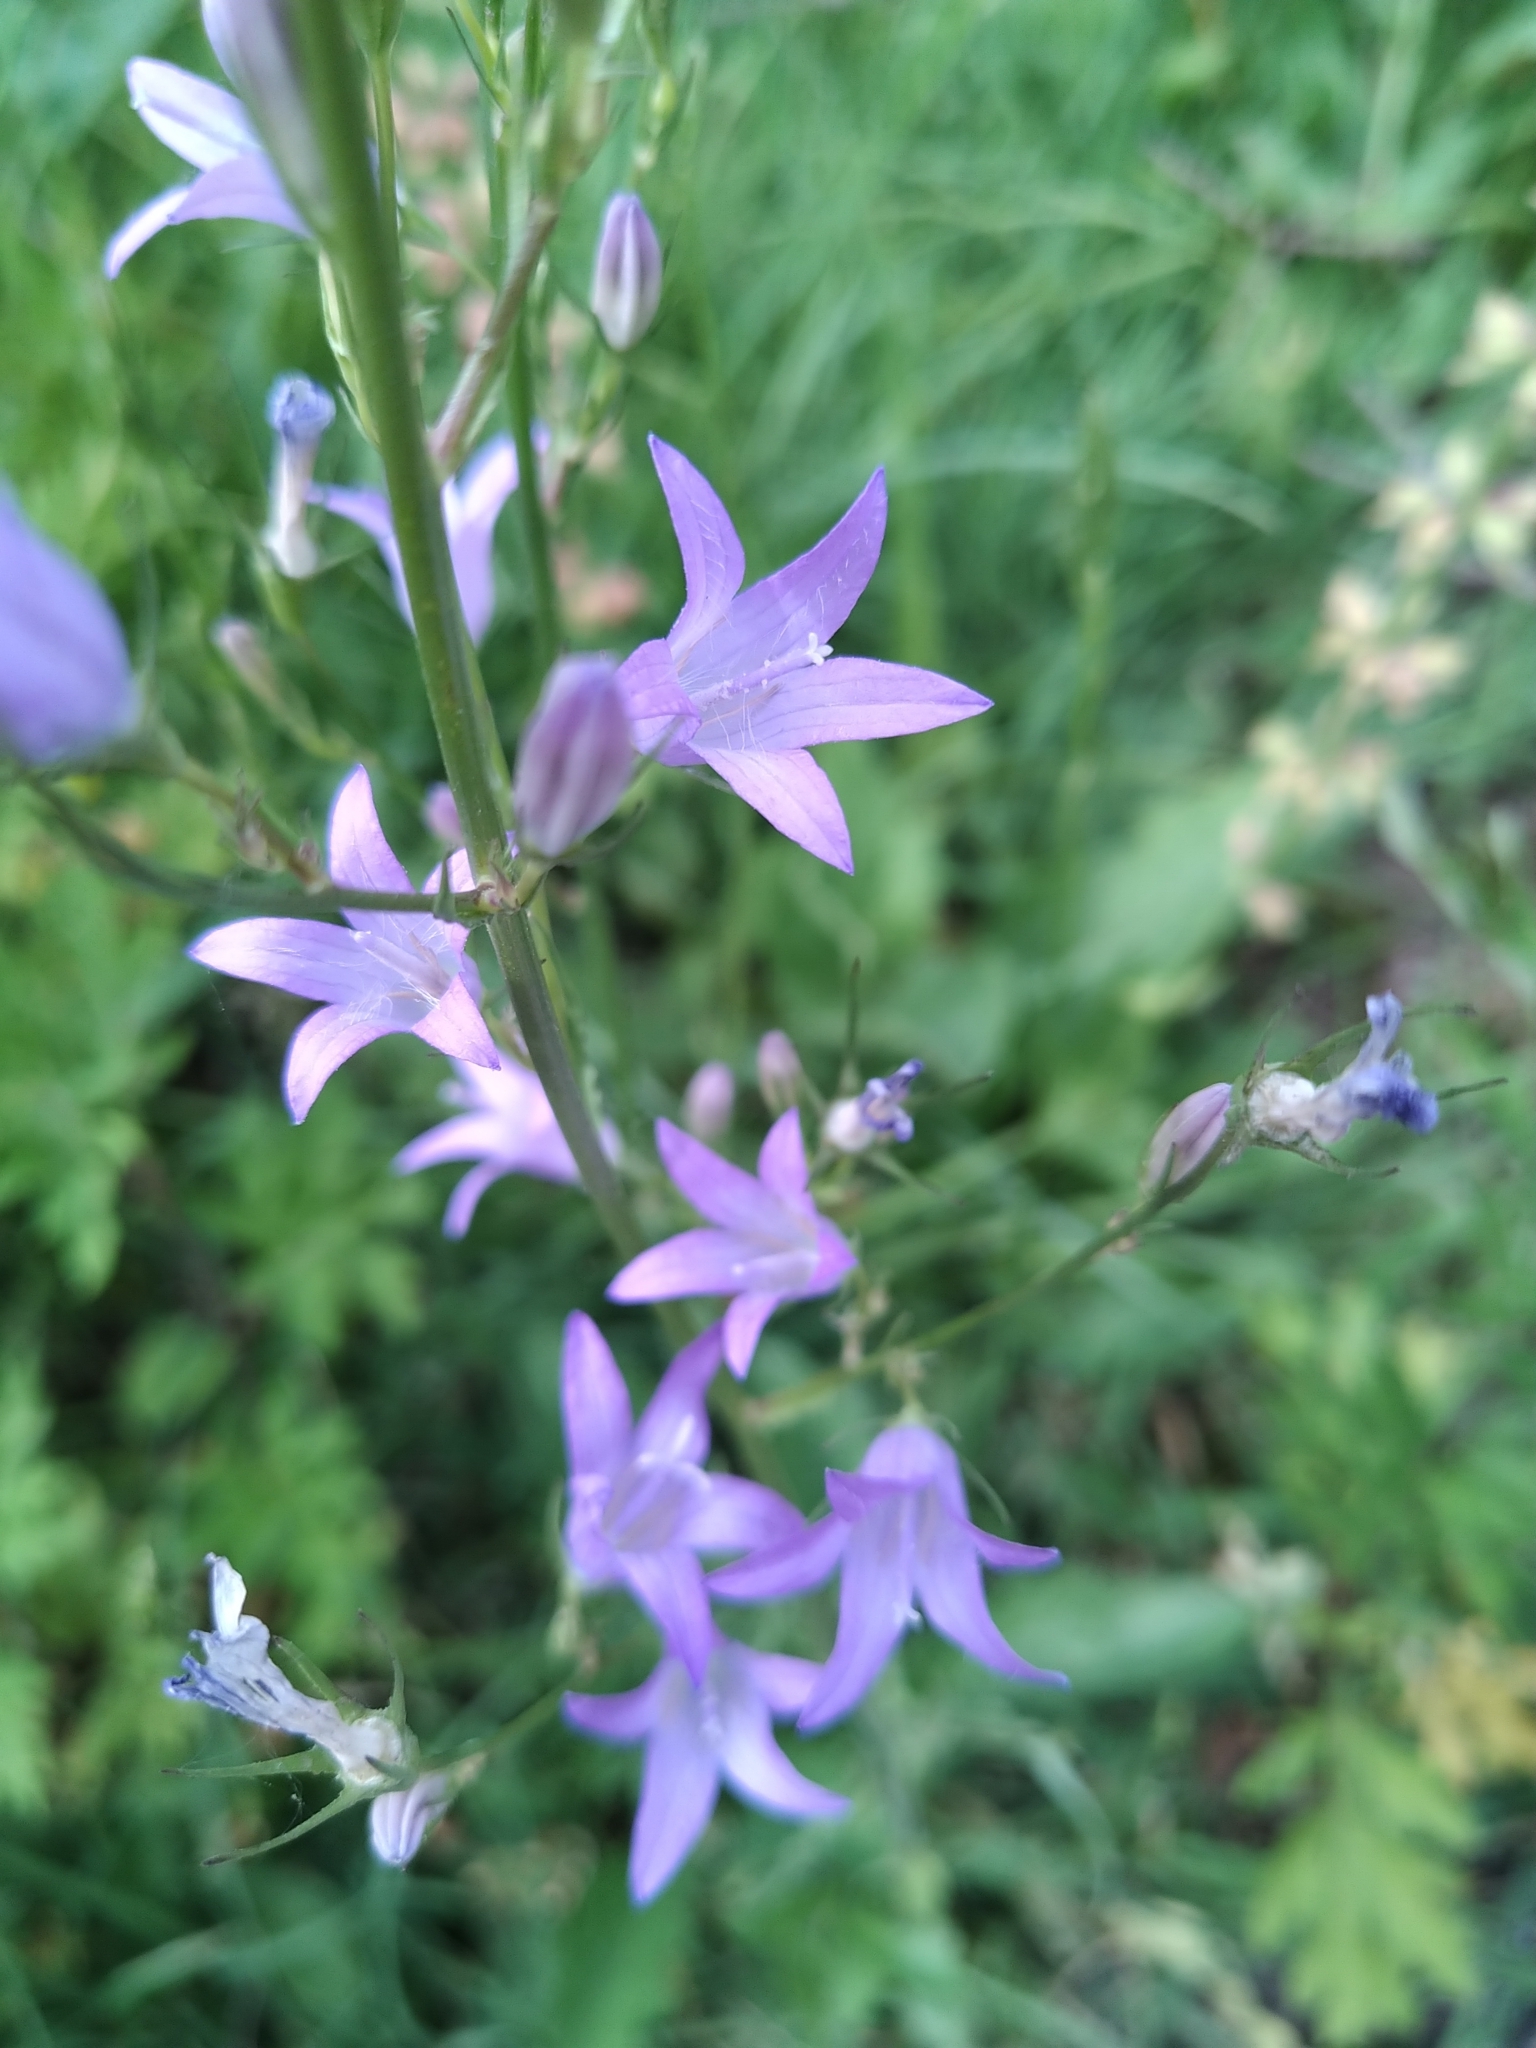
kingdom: Plantae
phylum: Tracheophyta
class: Magnoliopsida
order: Asterales
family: Campanulaceae
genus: Campanula
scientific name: Campanula rapunculus
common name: Rampion bellflower
